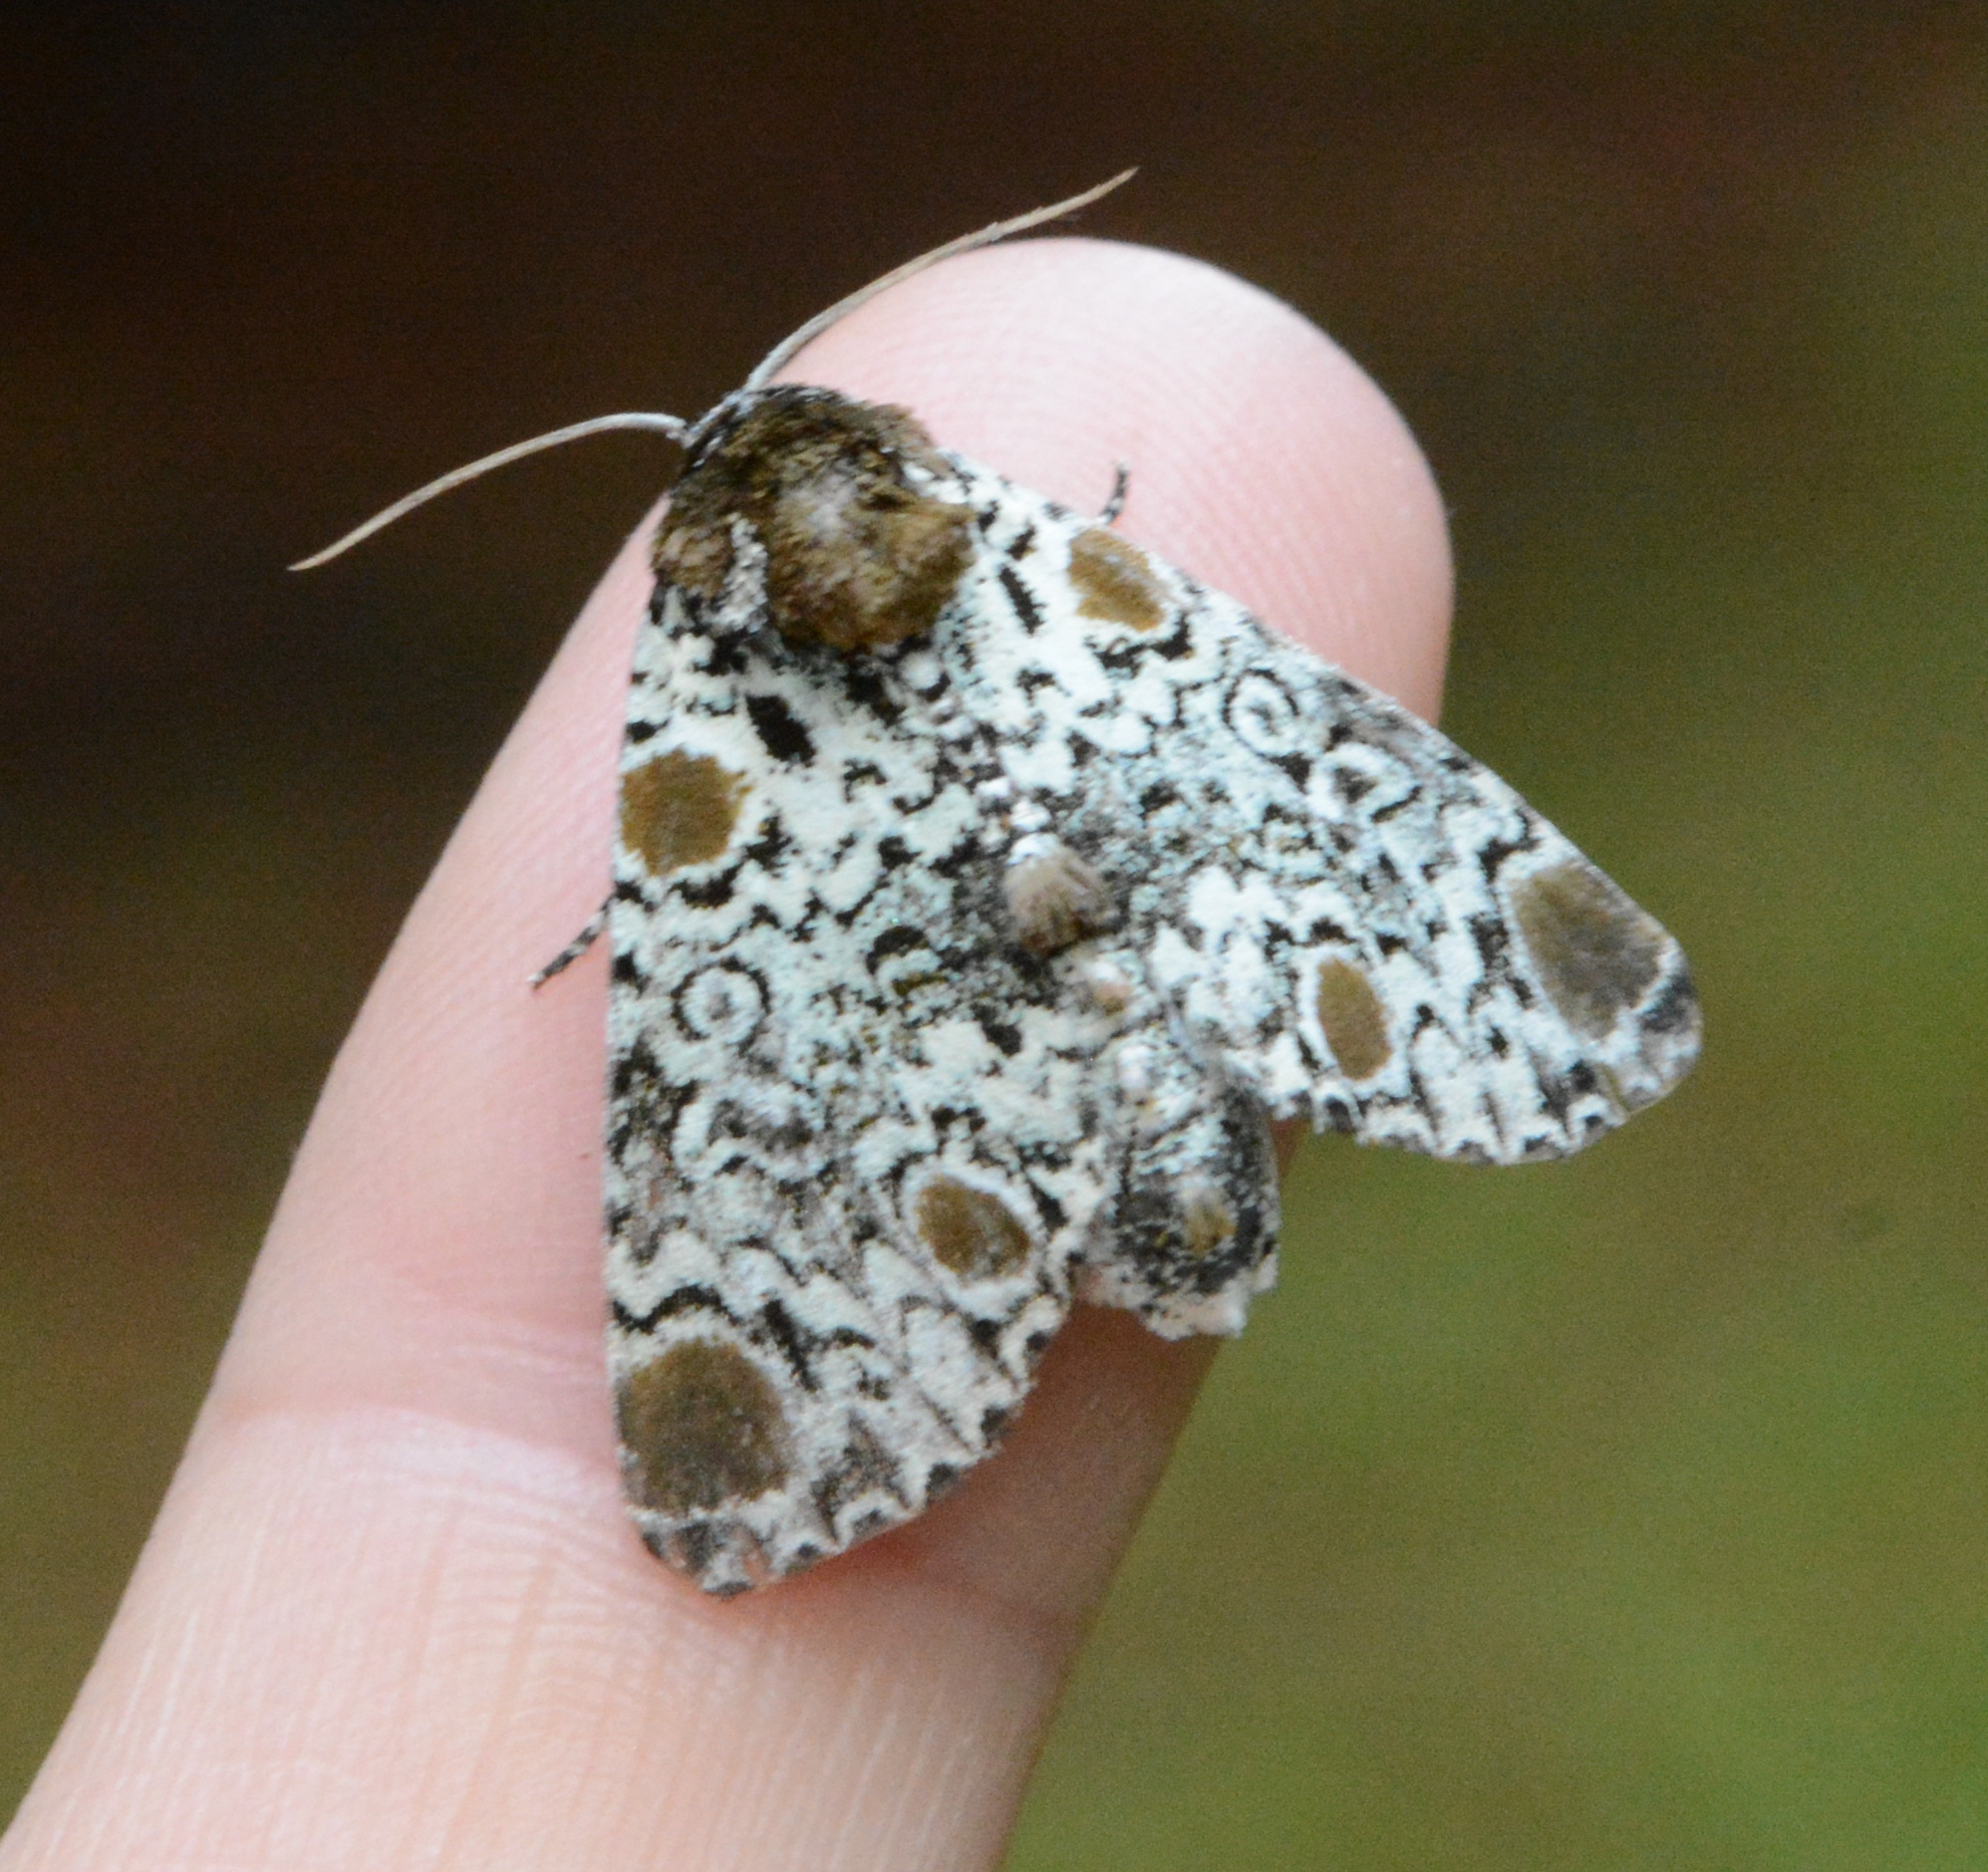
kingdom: Animalia
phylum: Arthropoda
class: Insecta
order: Lepidoptera
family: Noctuidae
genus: Harrisimemna
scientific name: Harrisimemna trisignata
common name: Harris threespot
